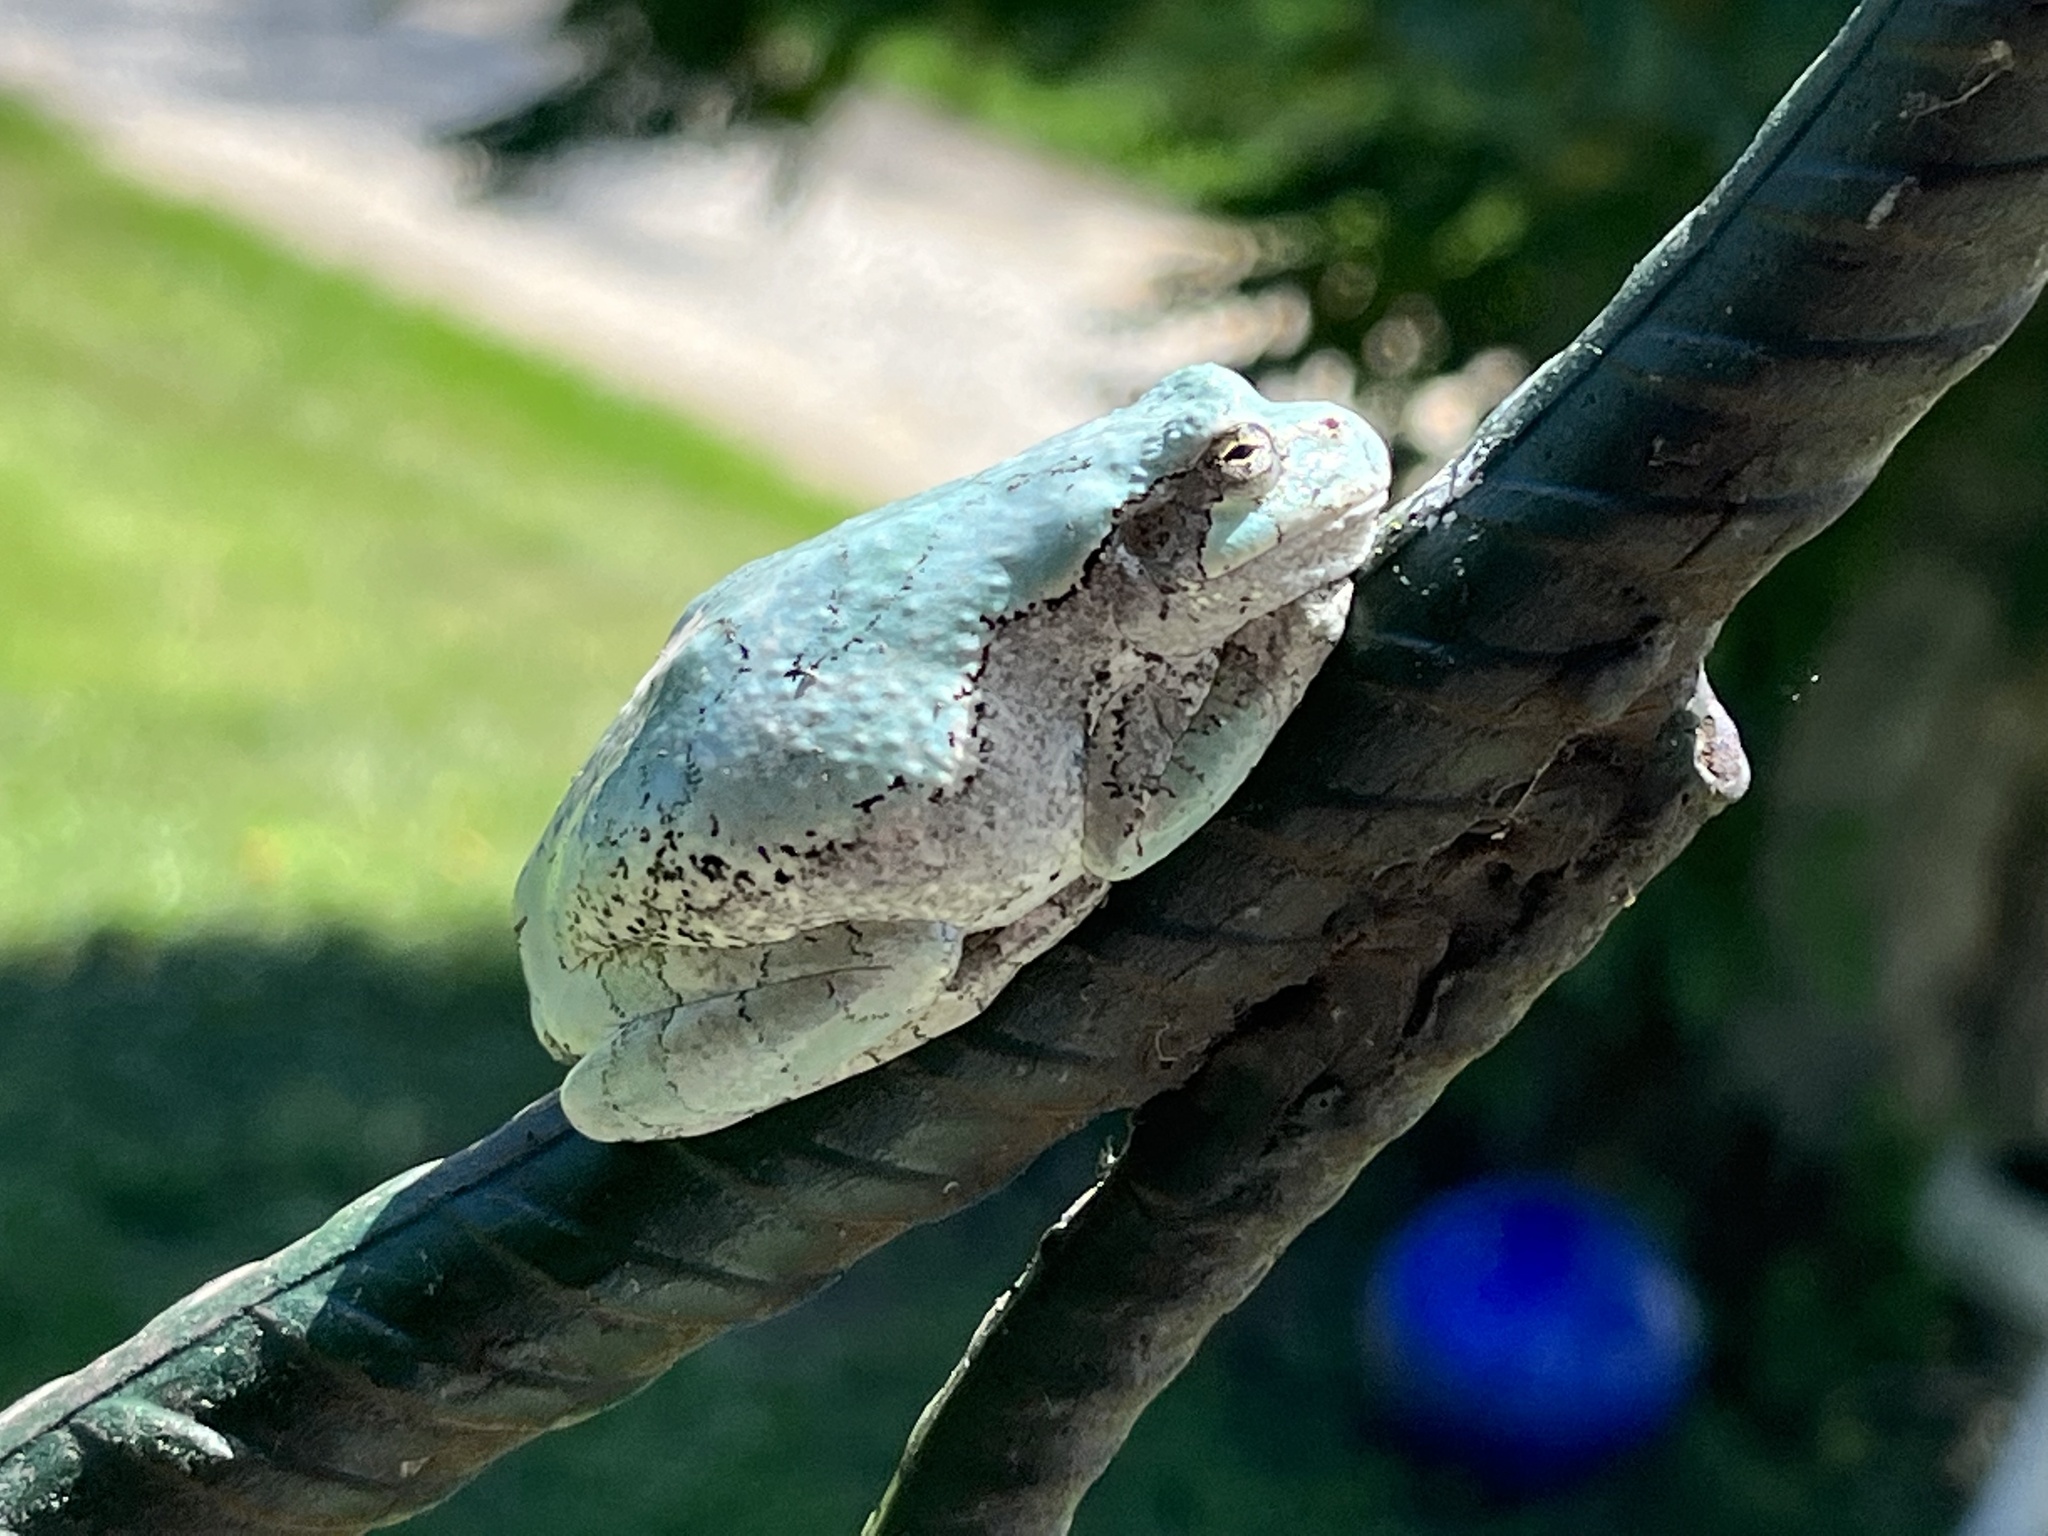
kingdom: Animalia
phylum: Chordata
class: Amphibia
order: Anura
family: Hylidae
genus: Dryophytes
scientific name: Dryophytes versicolor
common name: Gray treefrog
